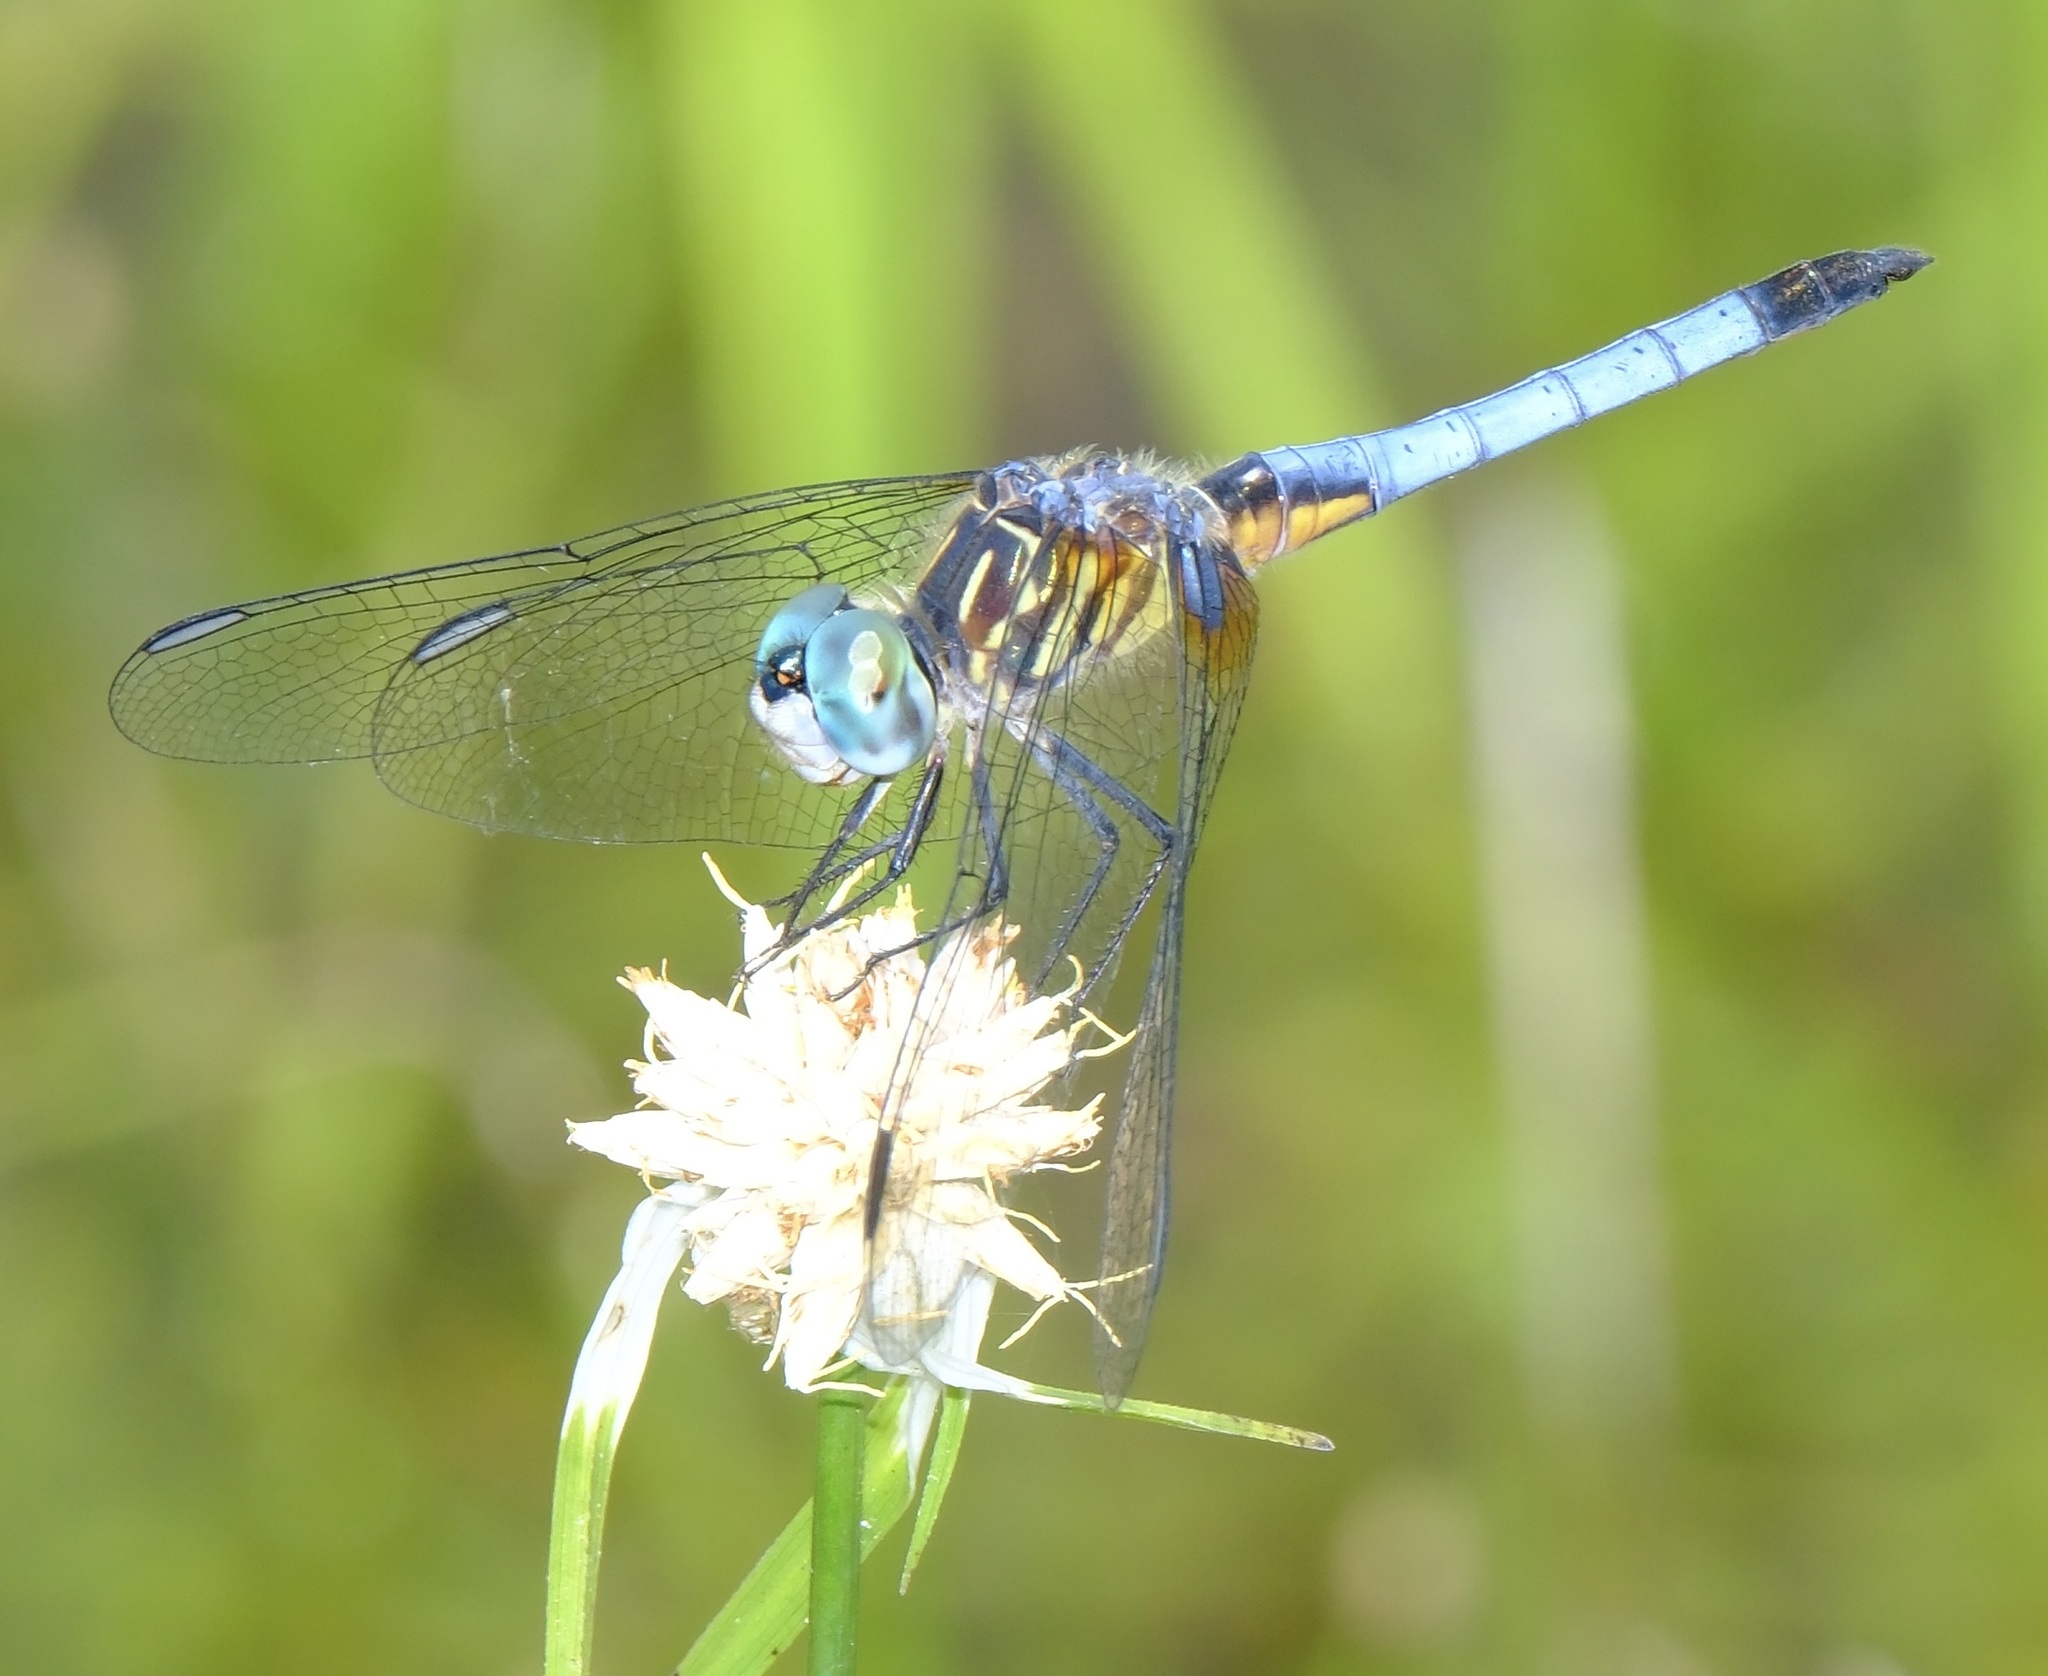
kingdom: Animalia
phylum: Arthropoda
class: Insecta
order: Odonata
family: Libellulidae
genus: Pachydiplax
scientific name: Pachydiplax longipennis
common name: Blue dasher
